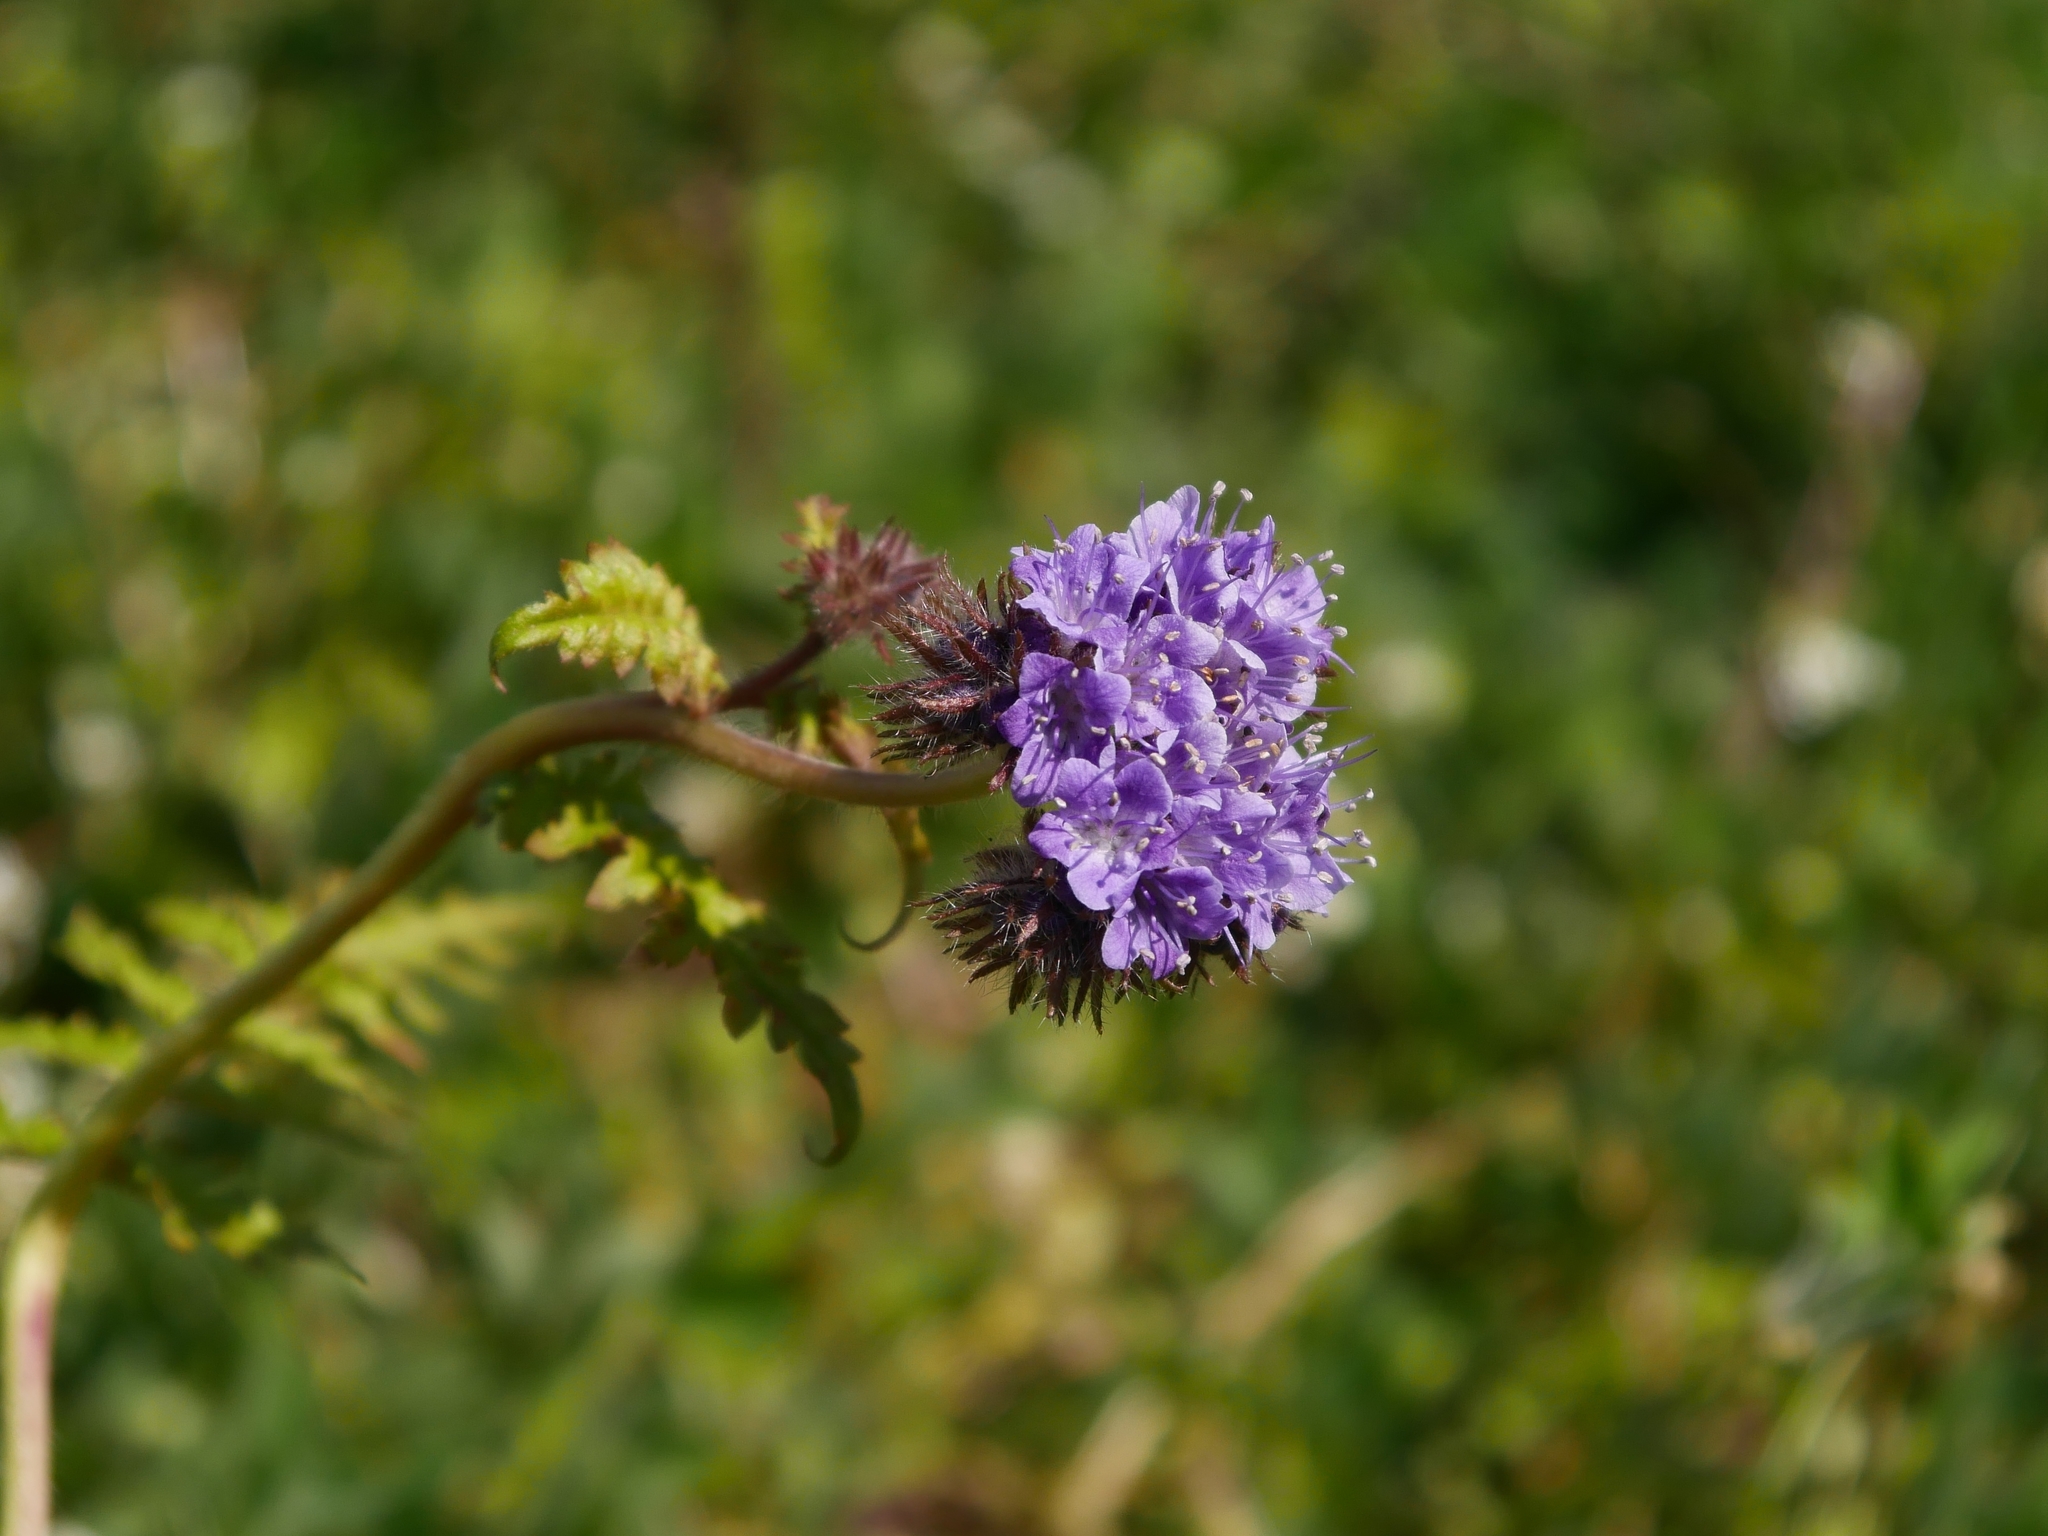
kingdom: Plantae
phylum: Tracheophyta
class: Magnoliopsida
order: Boraginales
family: Hydrophyllaceae
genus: Phacelia
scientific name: Phacelia tanacetifolia
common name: Phacelia
